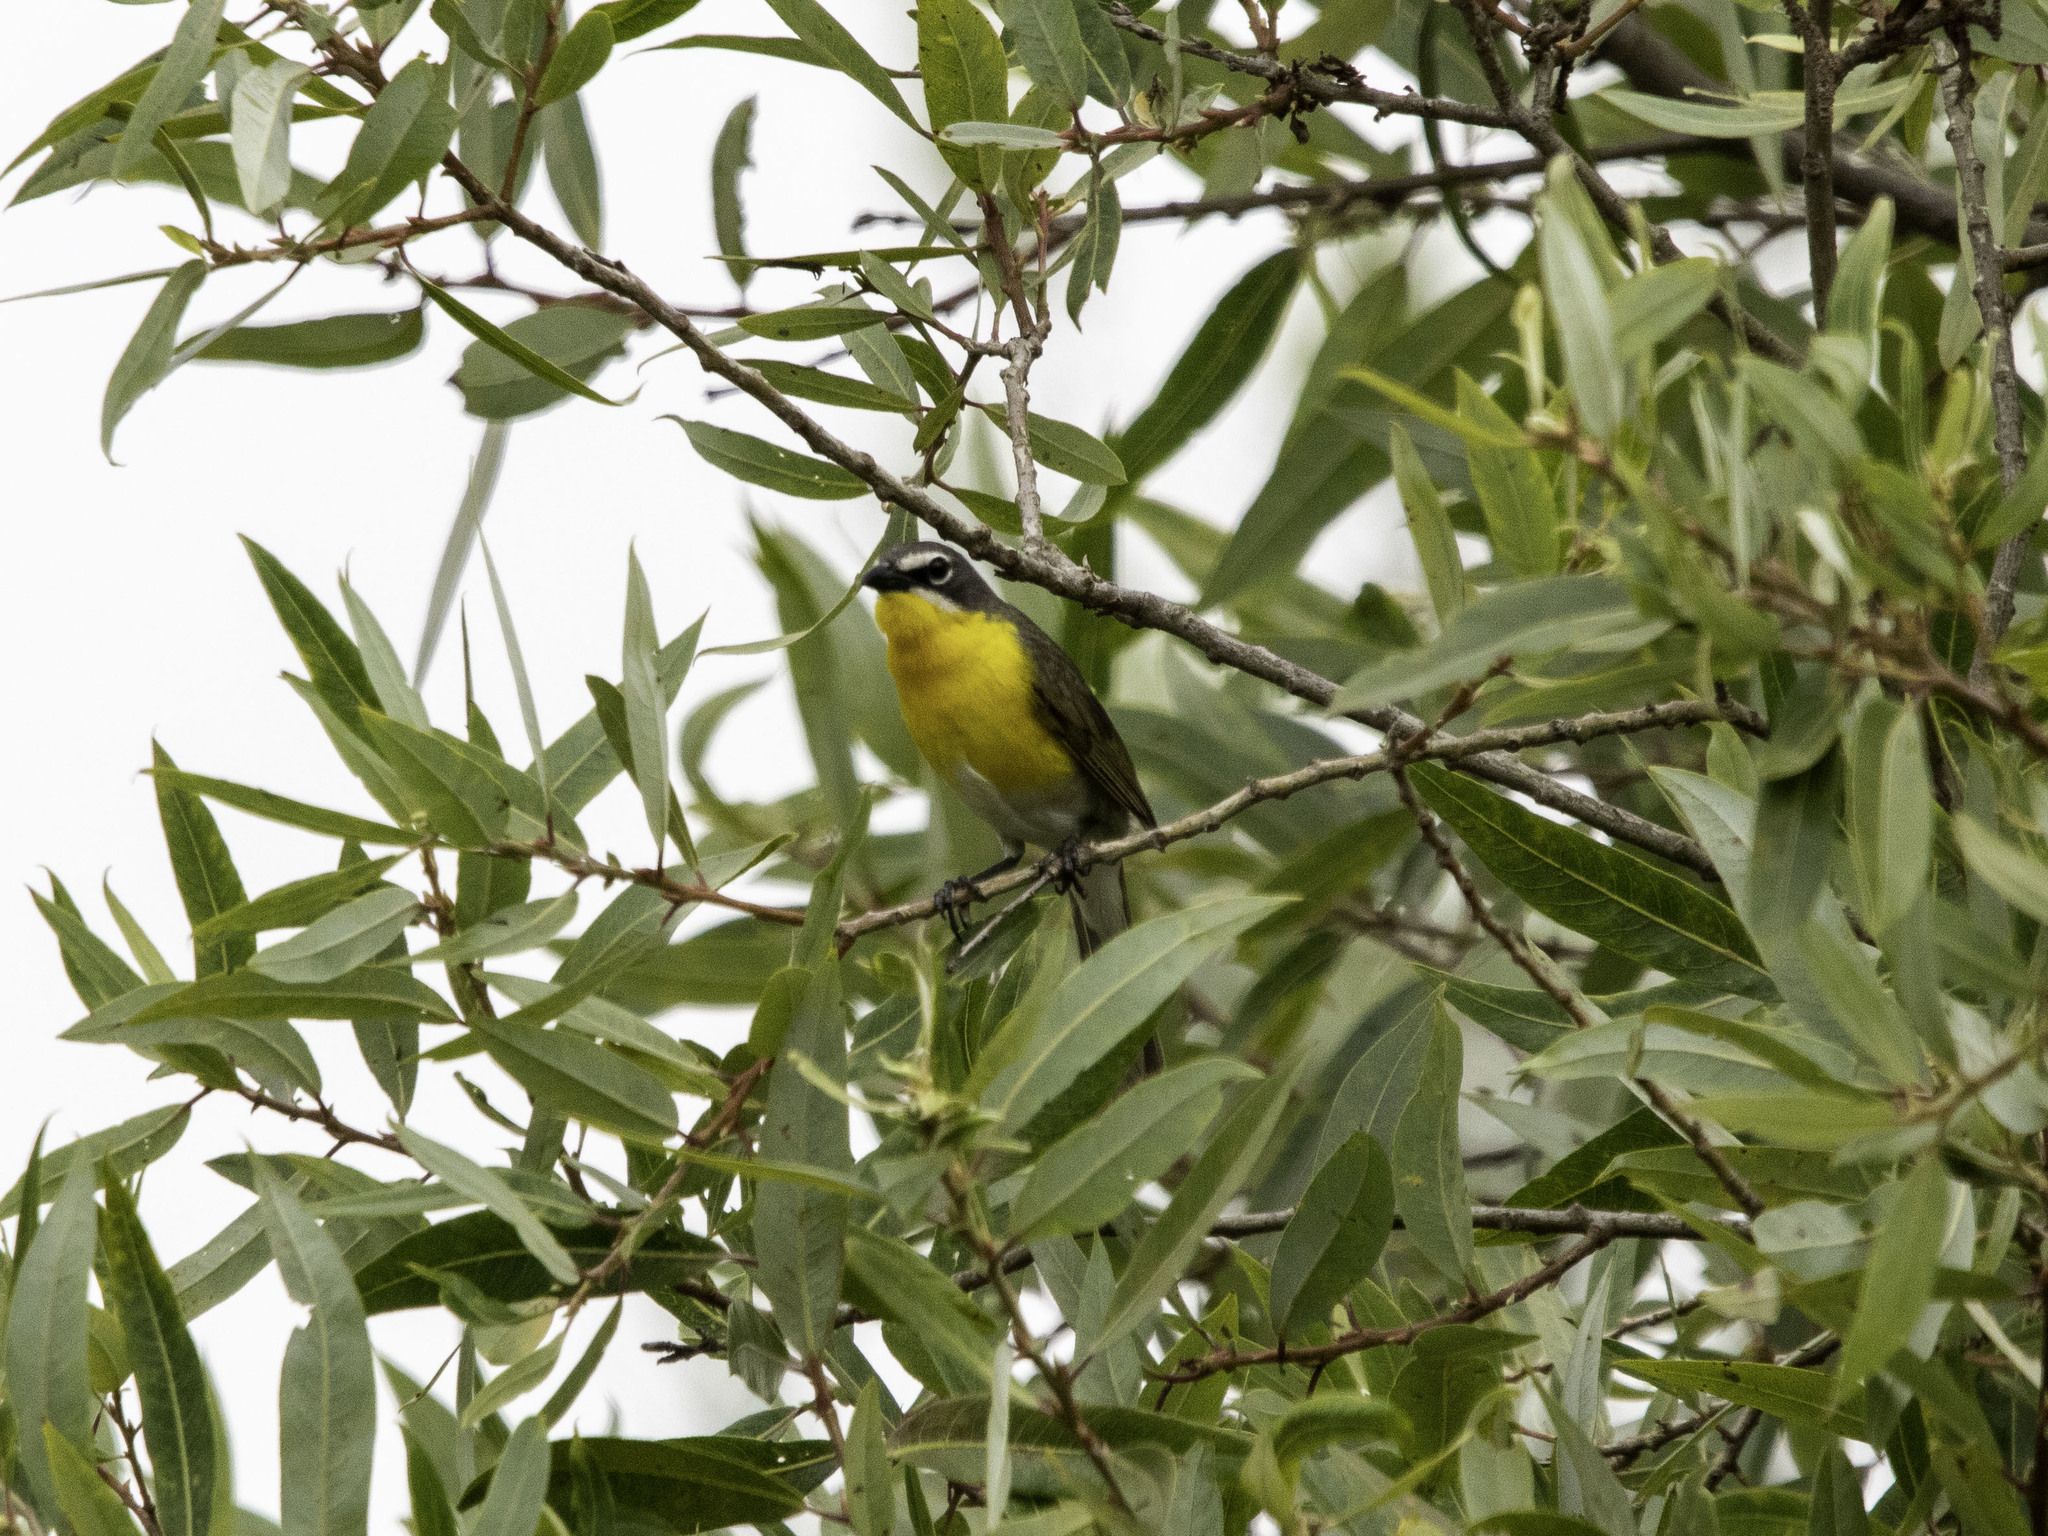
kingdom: Animalia
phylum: Chordata
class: Aves
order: Passeriformes
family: Parulidae
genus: Icteria
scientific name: Icteria virens
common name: Yellow-breasted chat
